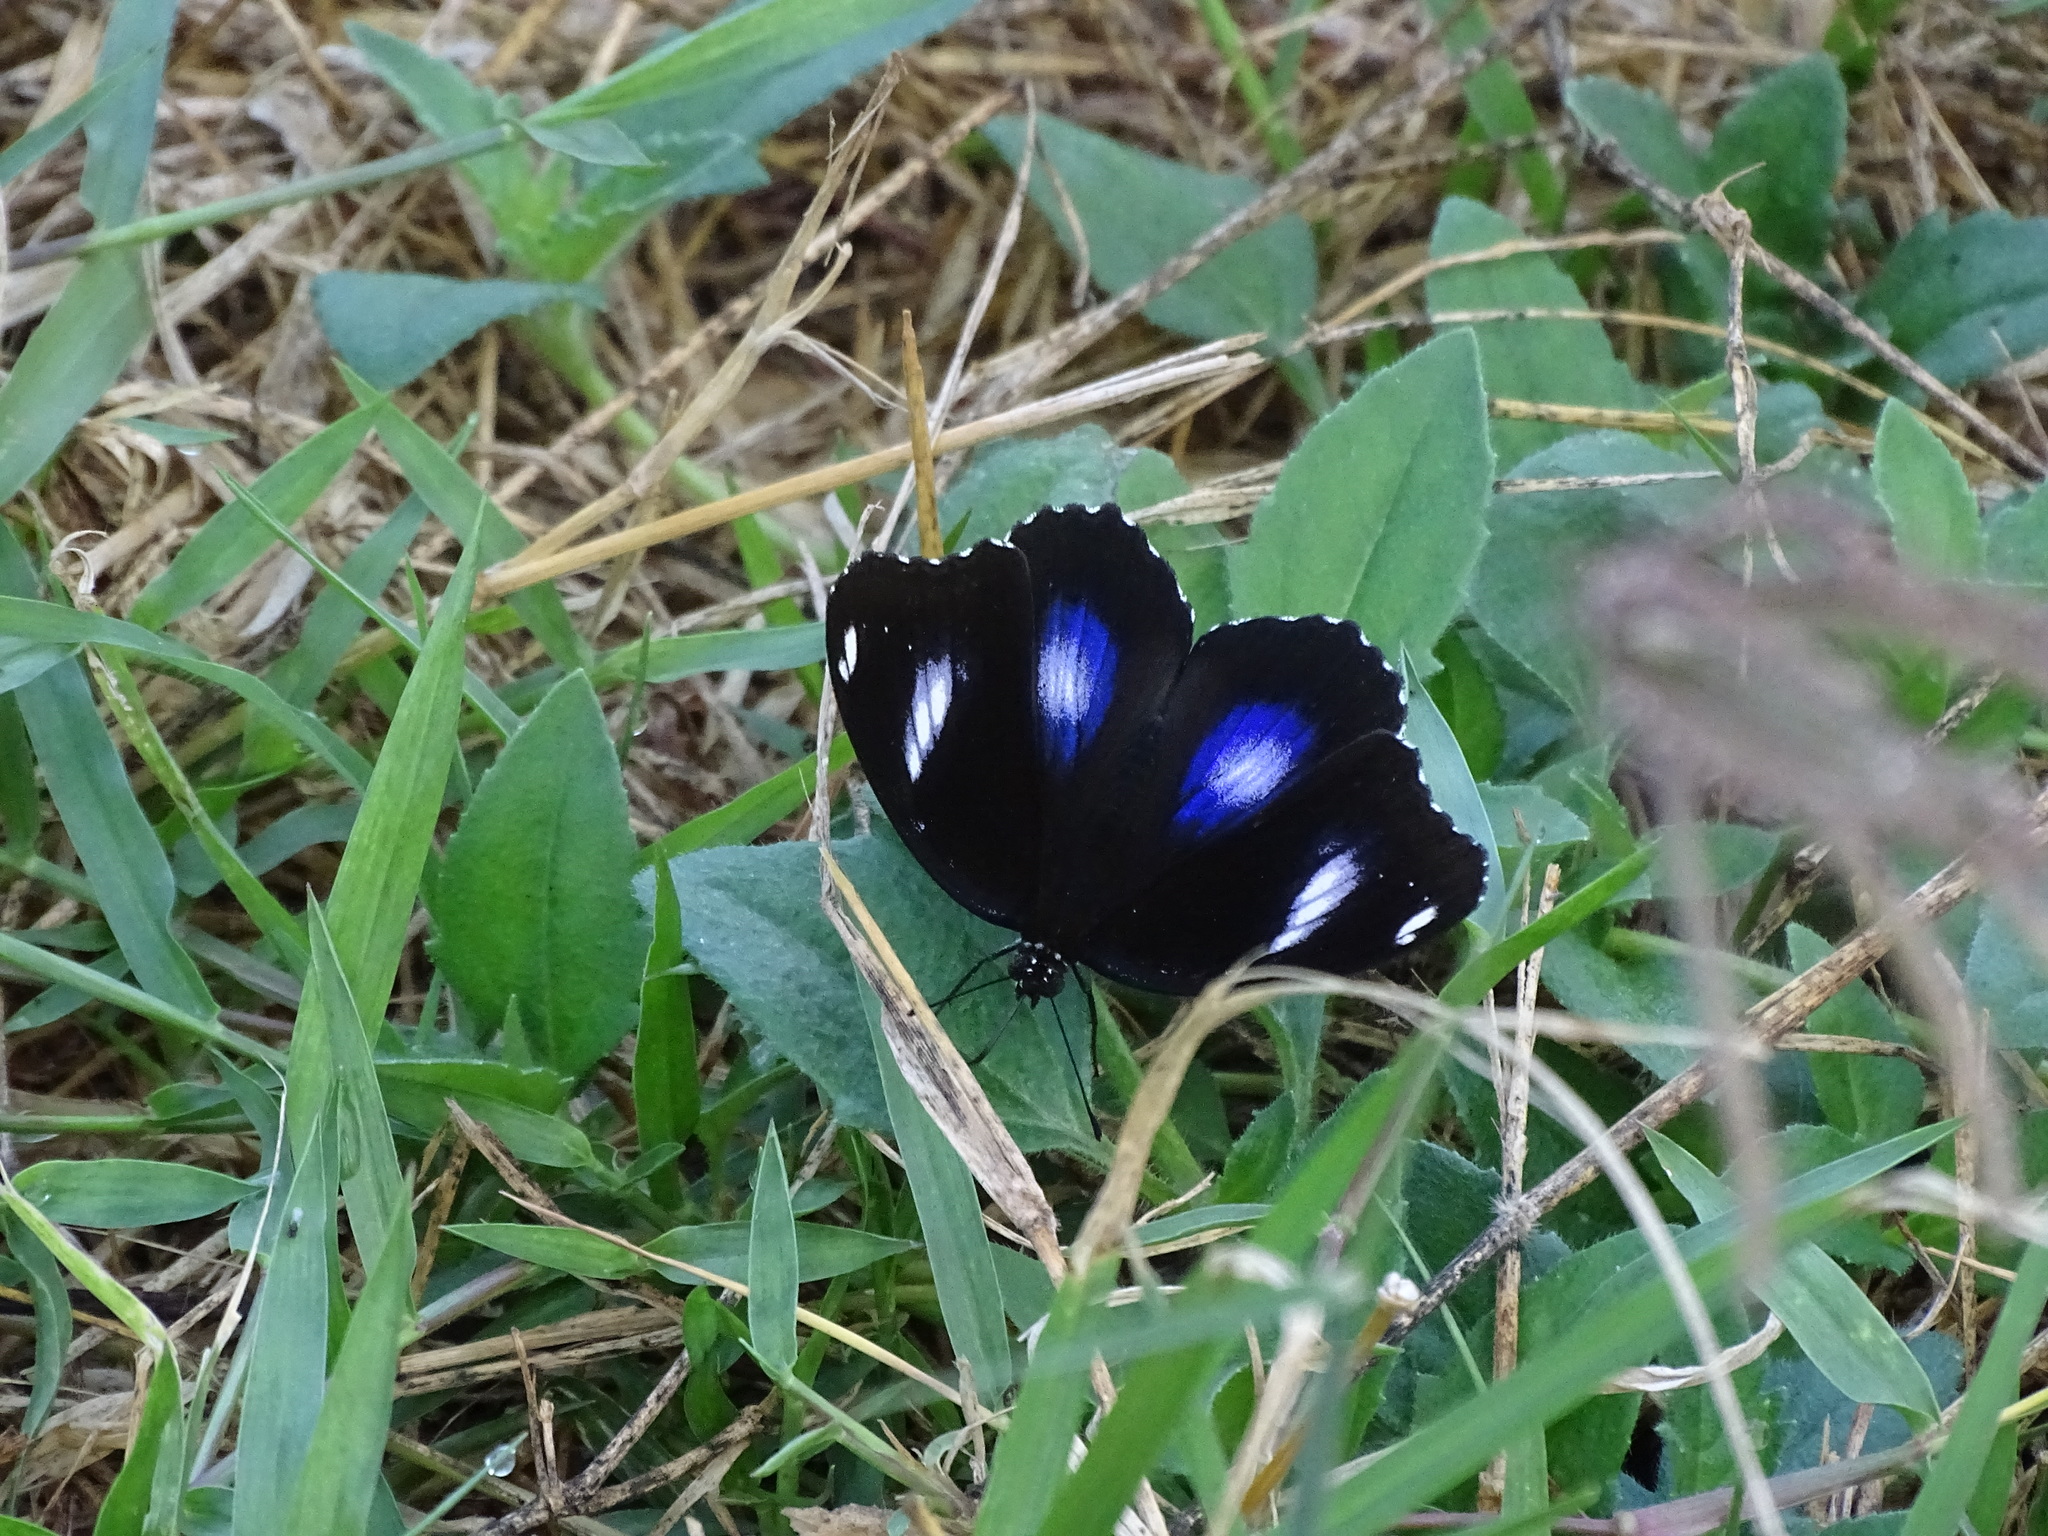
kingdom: Animalia
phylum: Arthropoda
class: Insecta
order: Lepidoptera
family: Nymphalidae
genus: Hypolimnas
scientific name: Hypolimnas bolina
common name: Great eggfly
